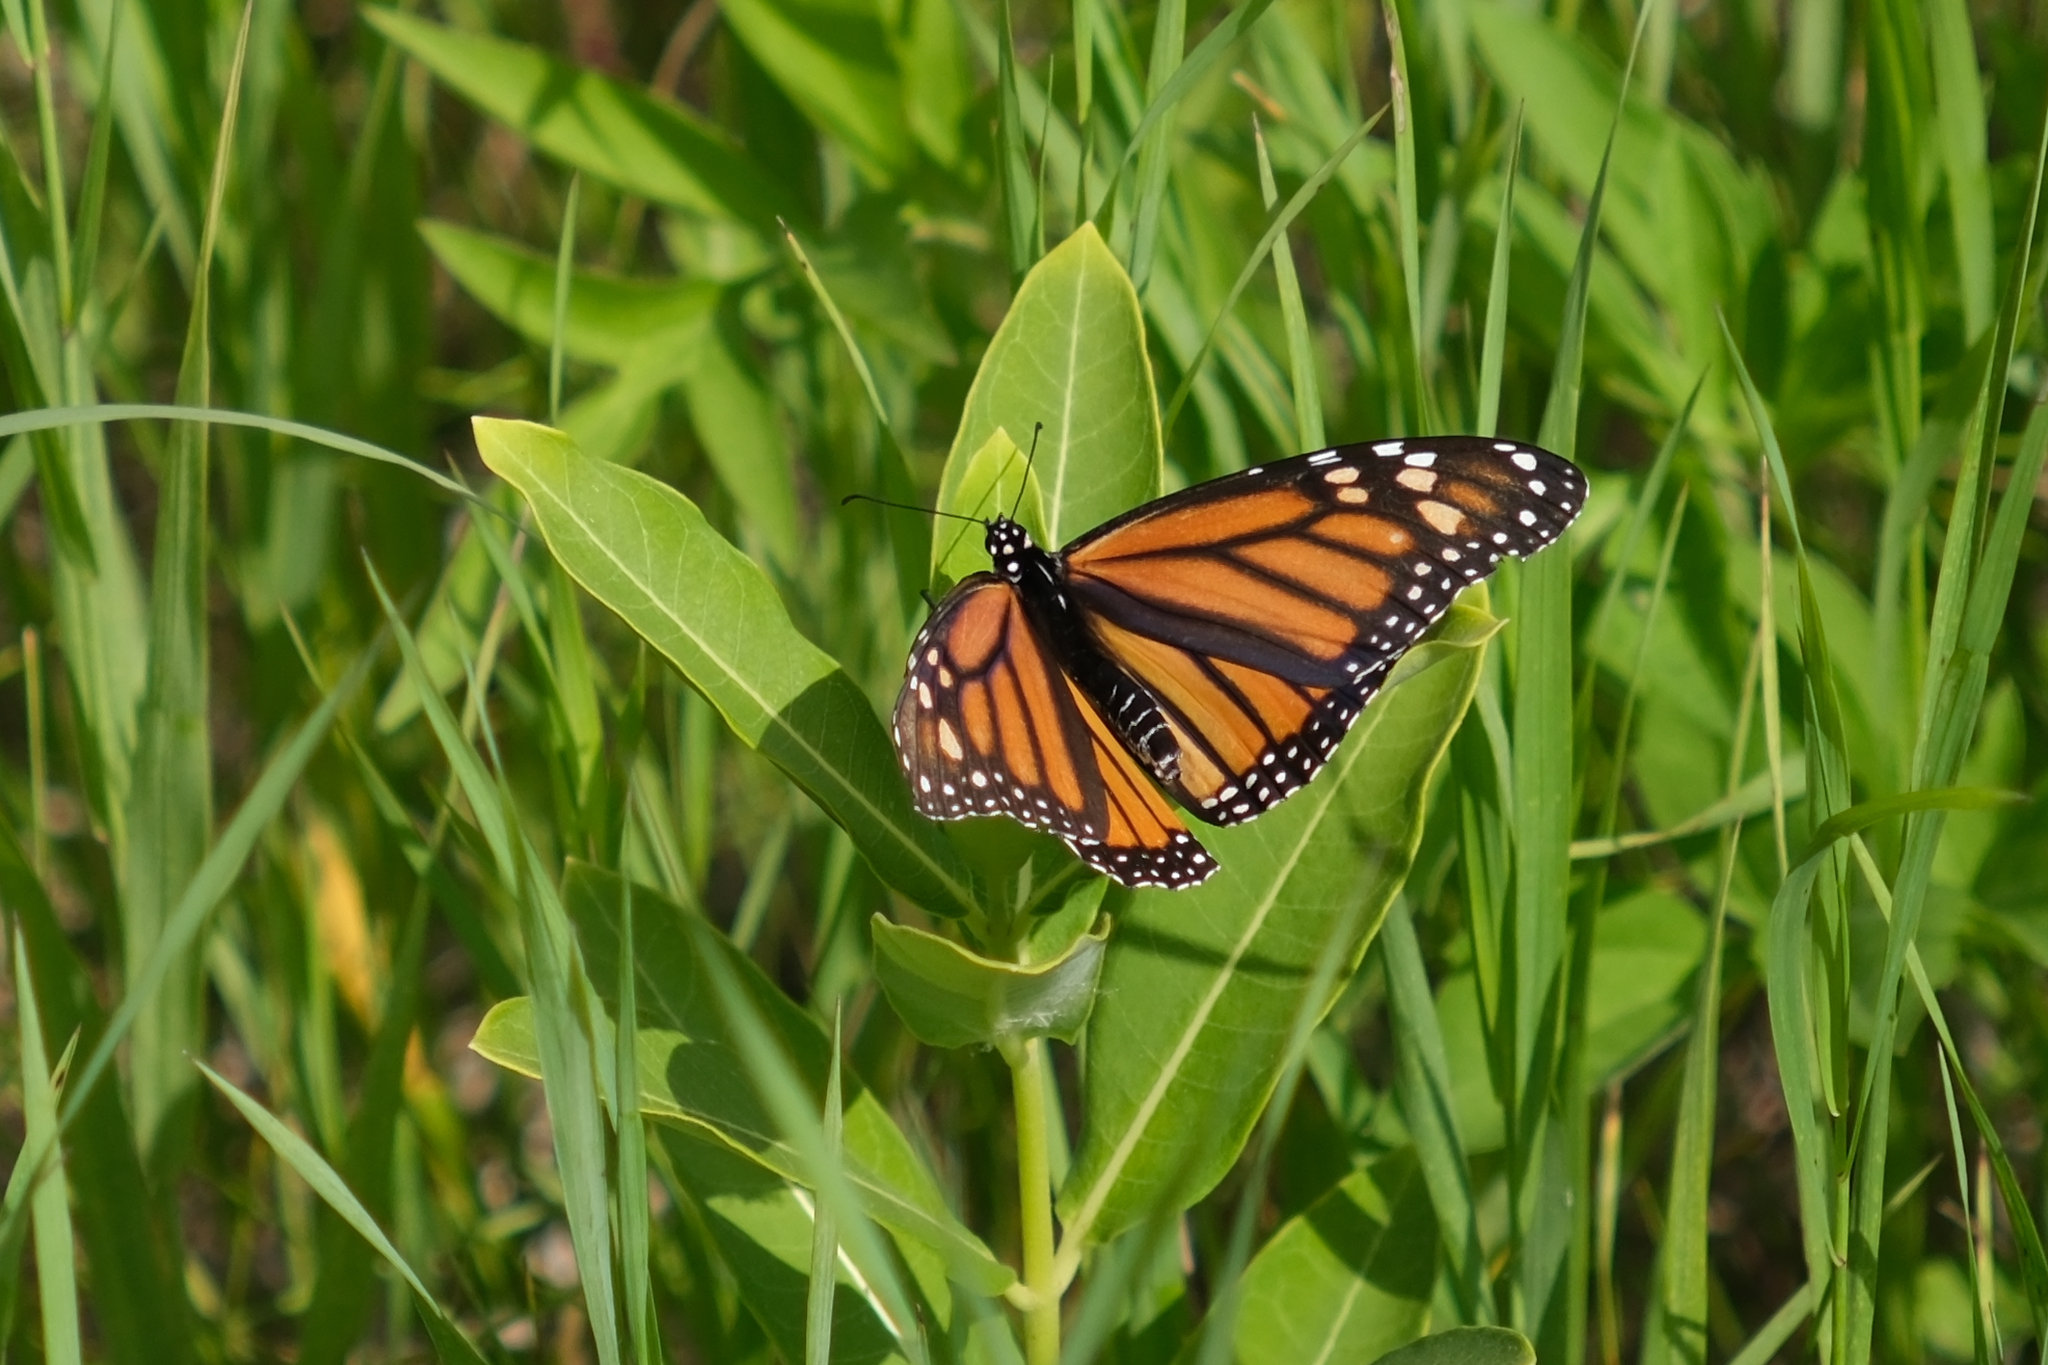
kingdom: Animalia
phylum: Arthropoda
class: Insecta
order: Lepidoptera
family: Nymphalidae
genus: Danaus
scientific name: Danaus plexippus
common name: Monarch
